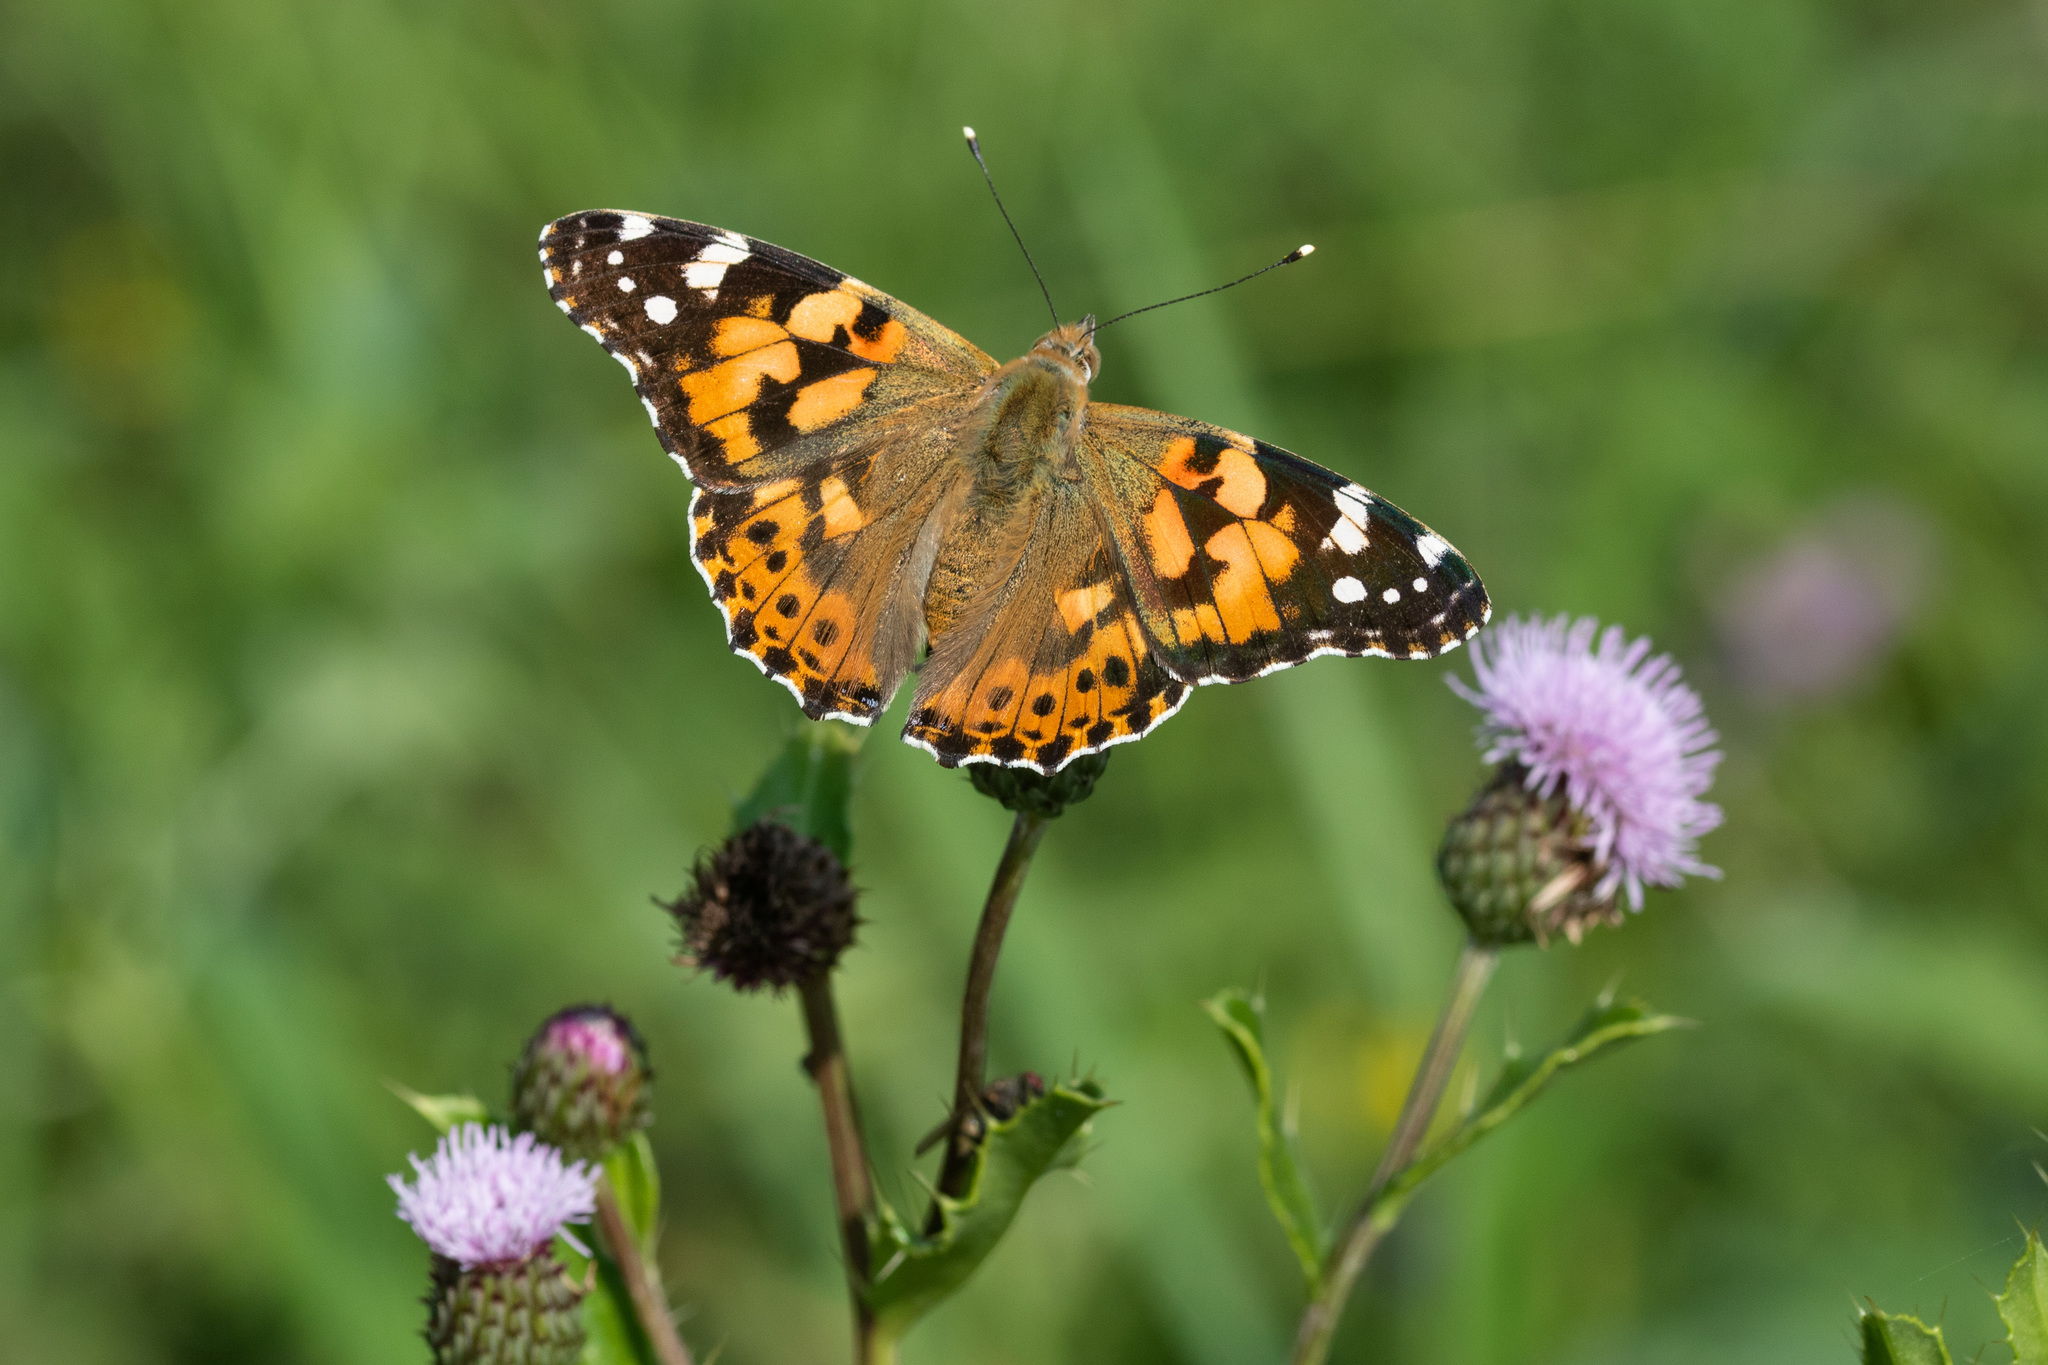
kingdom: Animalia
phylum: Arthropoda
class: Insecta
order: Lepidoptera
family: Nymphalidae
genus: Vanessa
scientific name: Vanessa cardui
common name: Painted lady
